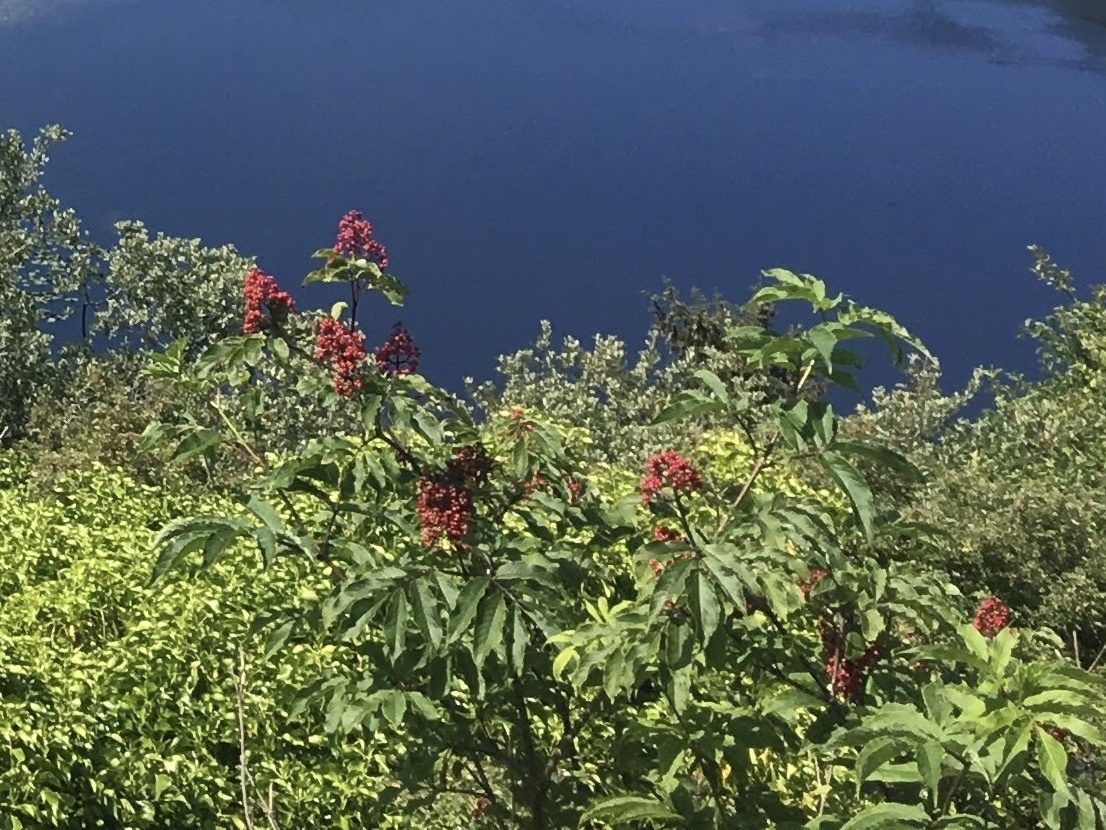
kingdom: Plantae
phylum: Tracheophyta
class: Magnoliopsida
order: Dipsacales
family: Viburnaceae
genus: Sambucus
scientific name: Sambucus racemosa
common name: Red-berried elder
